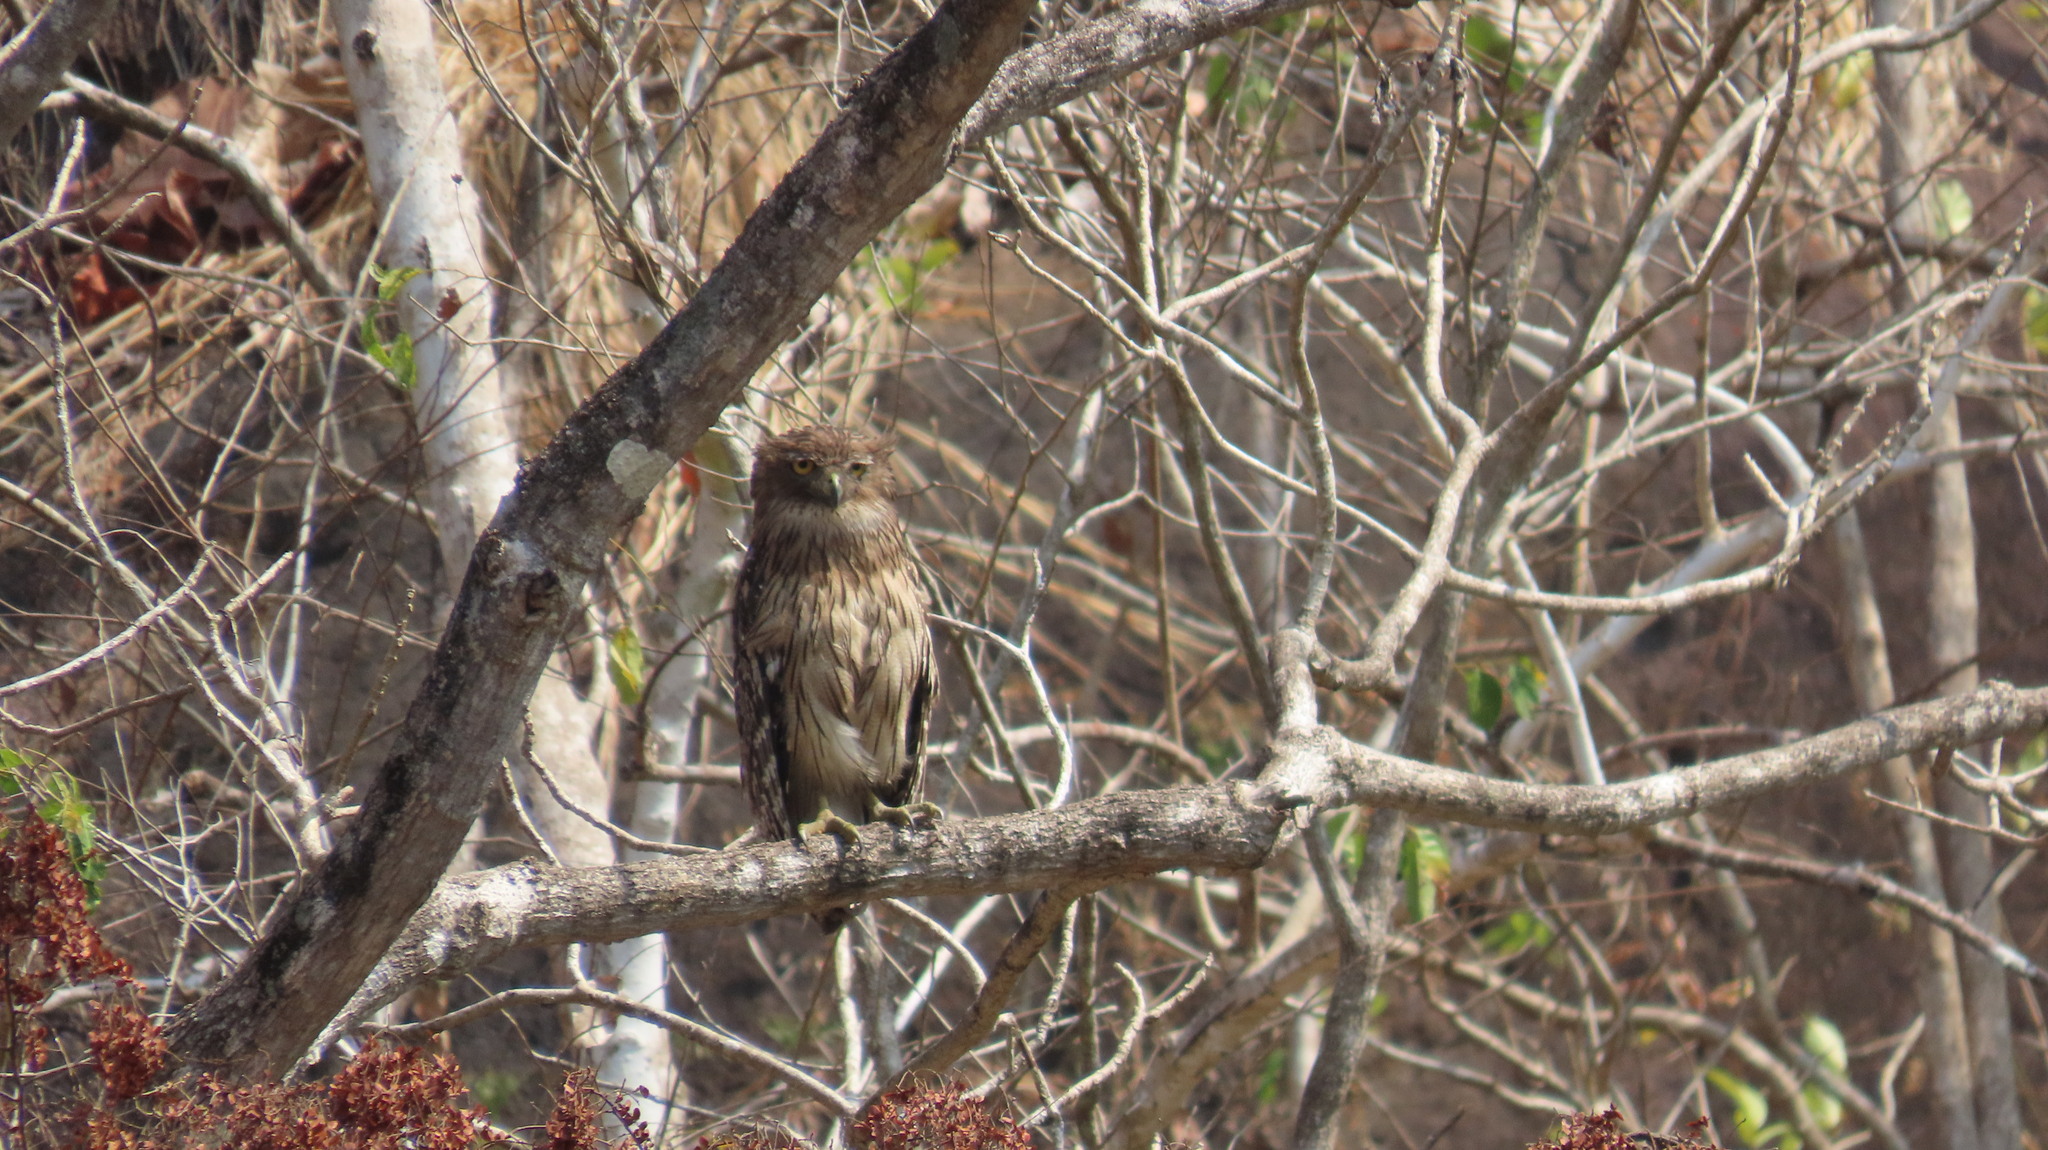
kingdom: Animalia
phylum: Chordata
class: Aves
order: Strigiformes
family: Strigidae
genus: Ketupa
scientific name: Ketupa zeylonensis
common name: Brown fish owl
